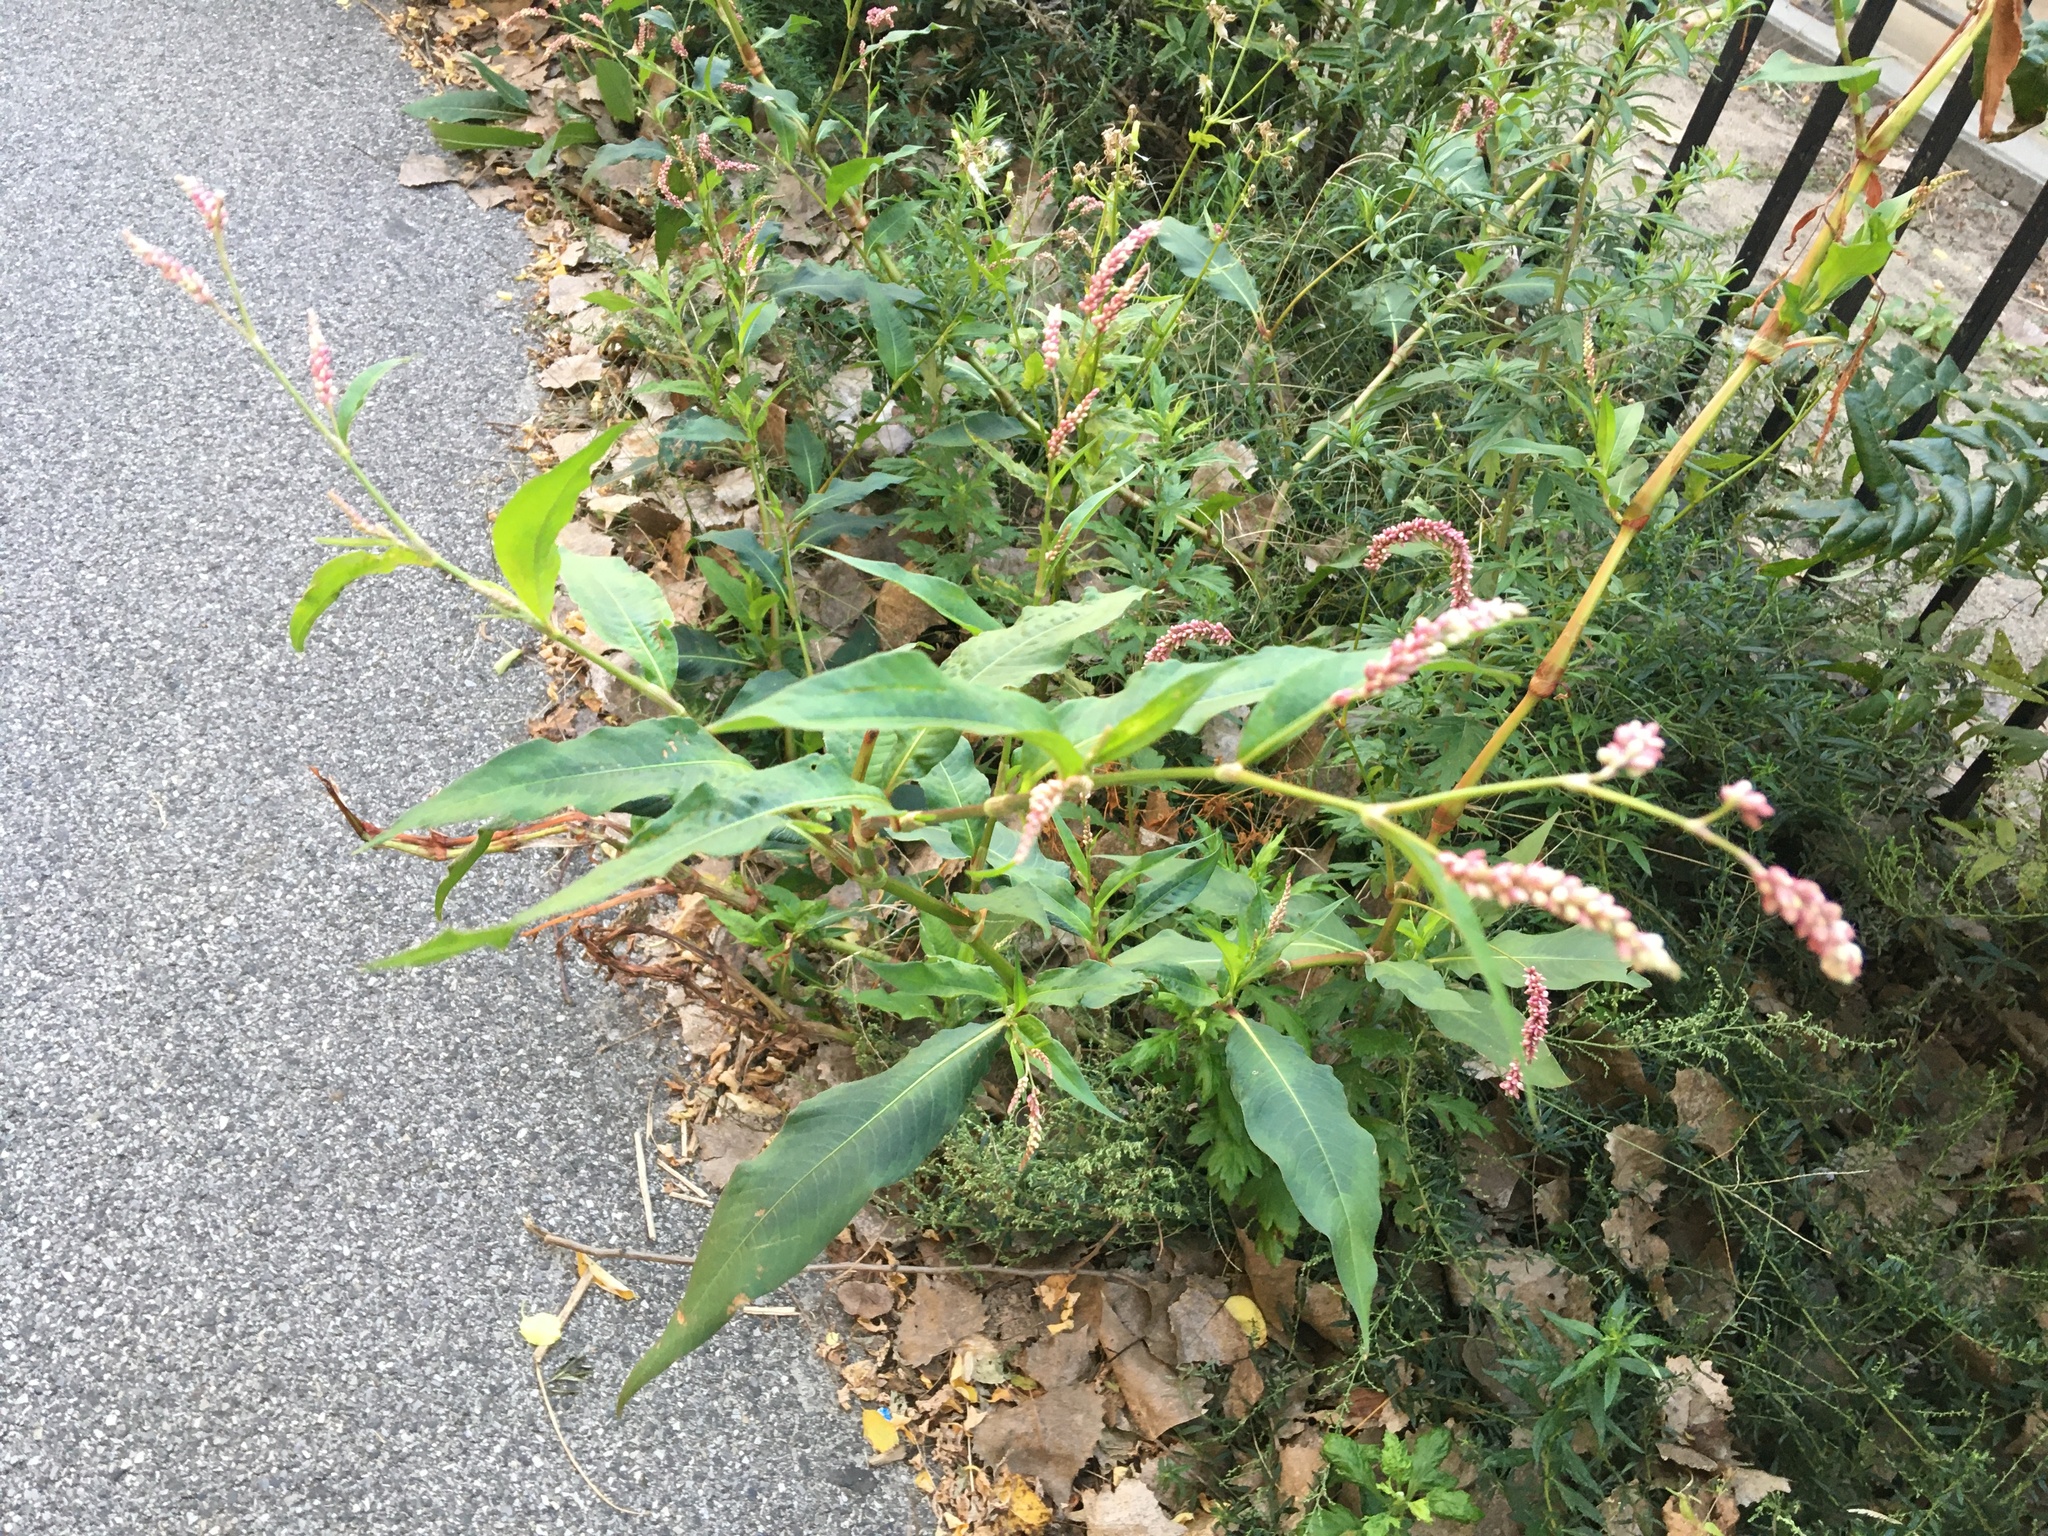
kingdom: Plantae
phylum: Tracheophyta
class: Magnoliopsida
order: Caryophyllales
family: Polygonaceae
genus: Persicaria
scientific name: Persicaria extremiorientalis
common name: Far-eastern smartweed
